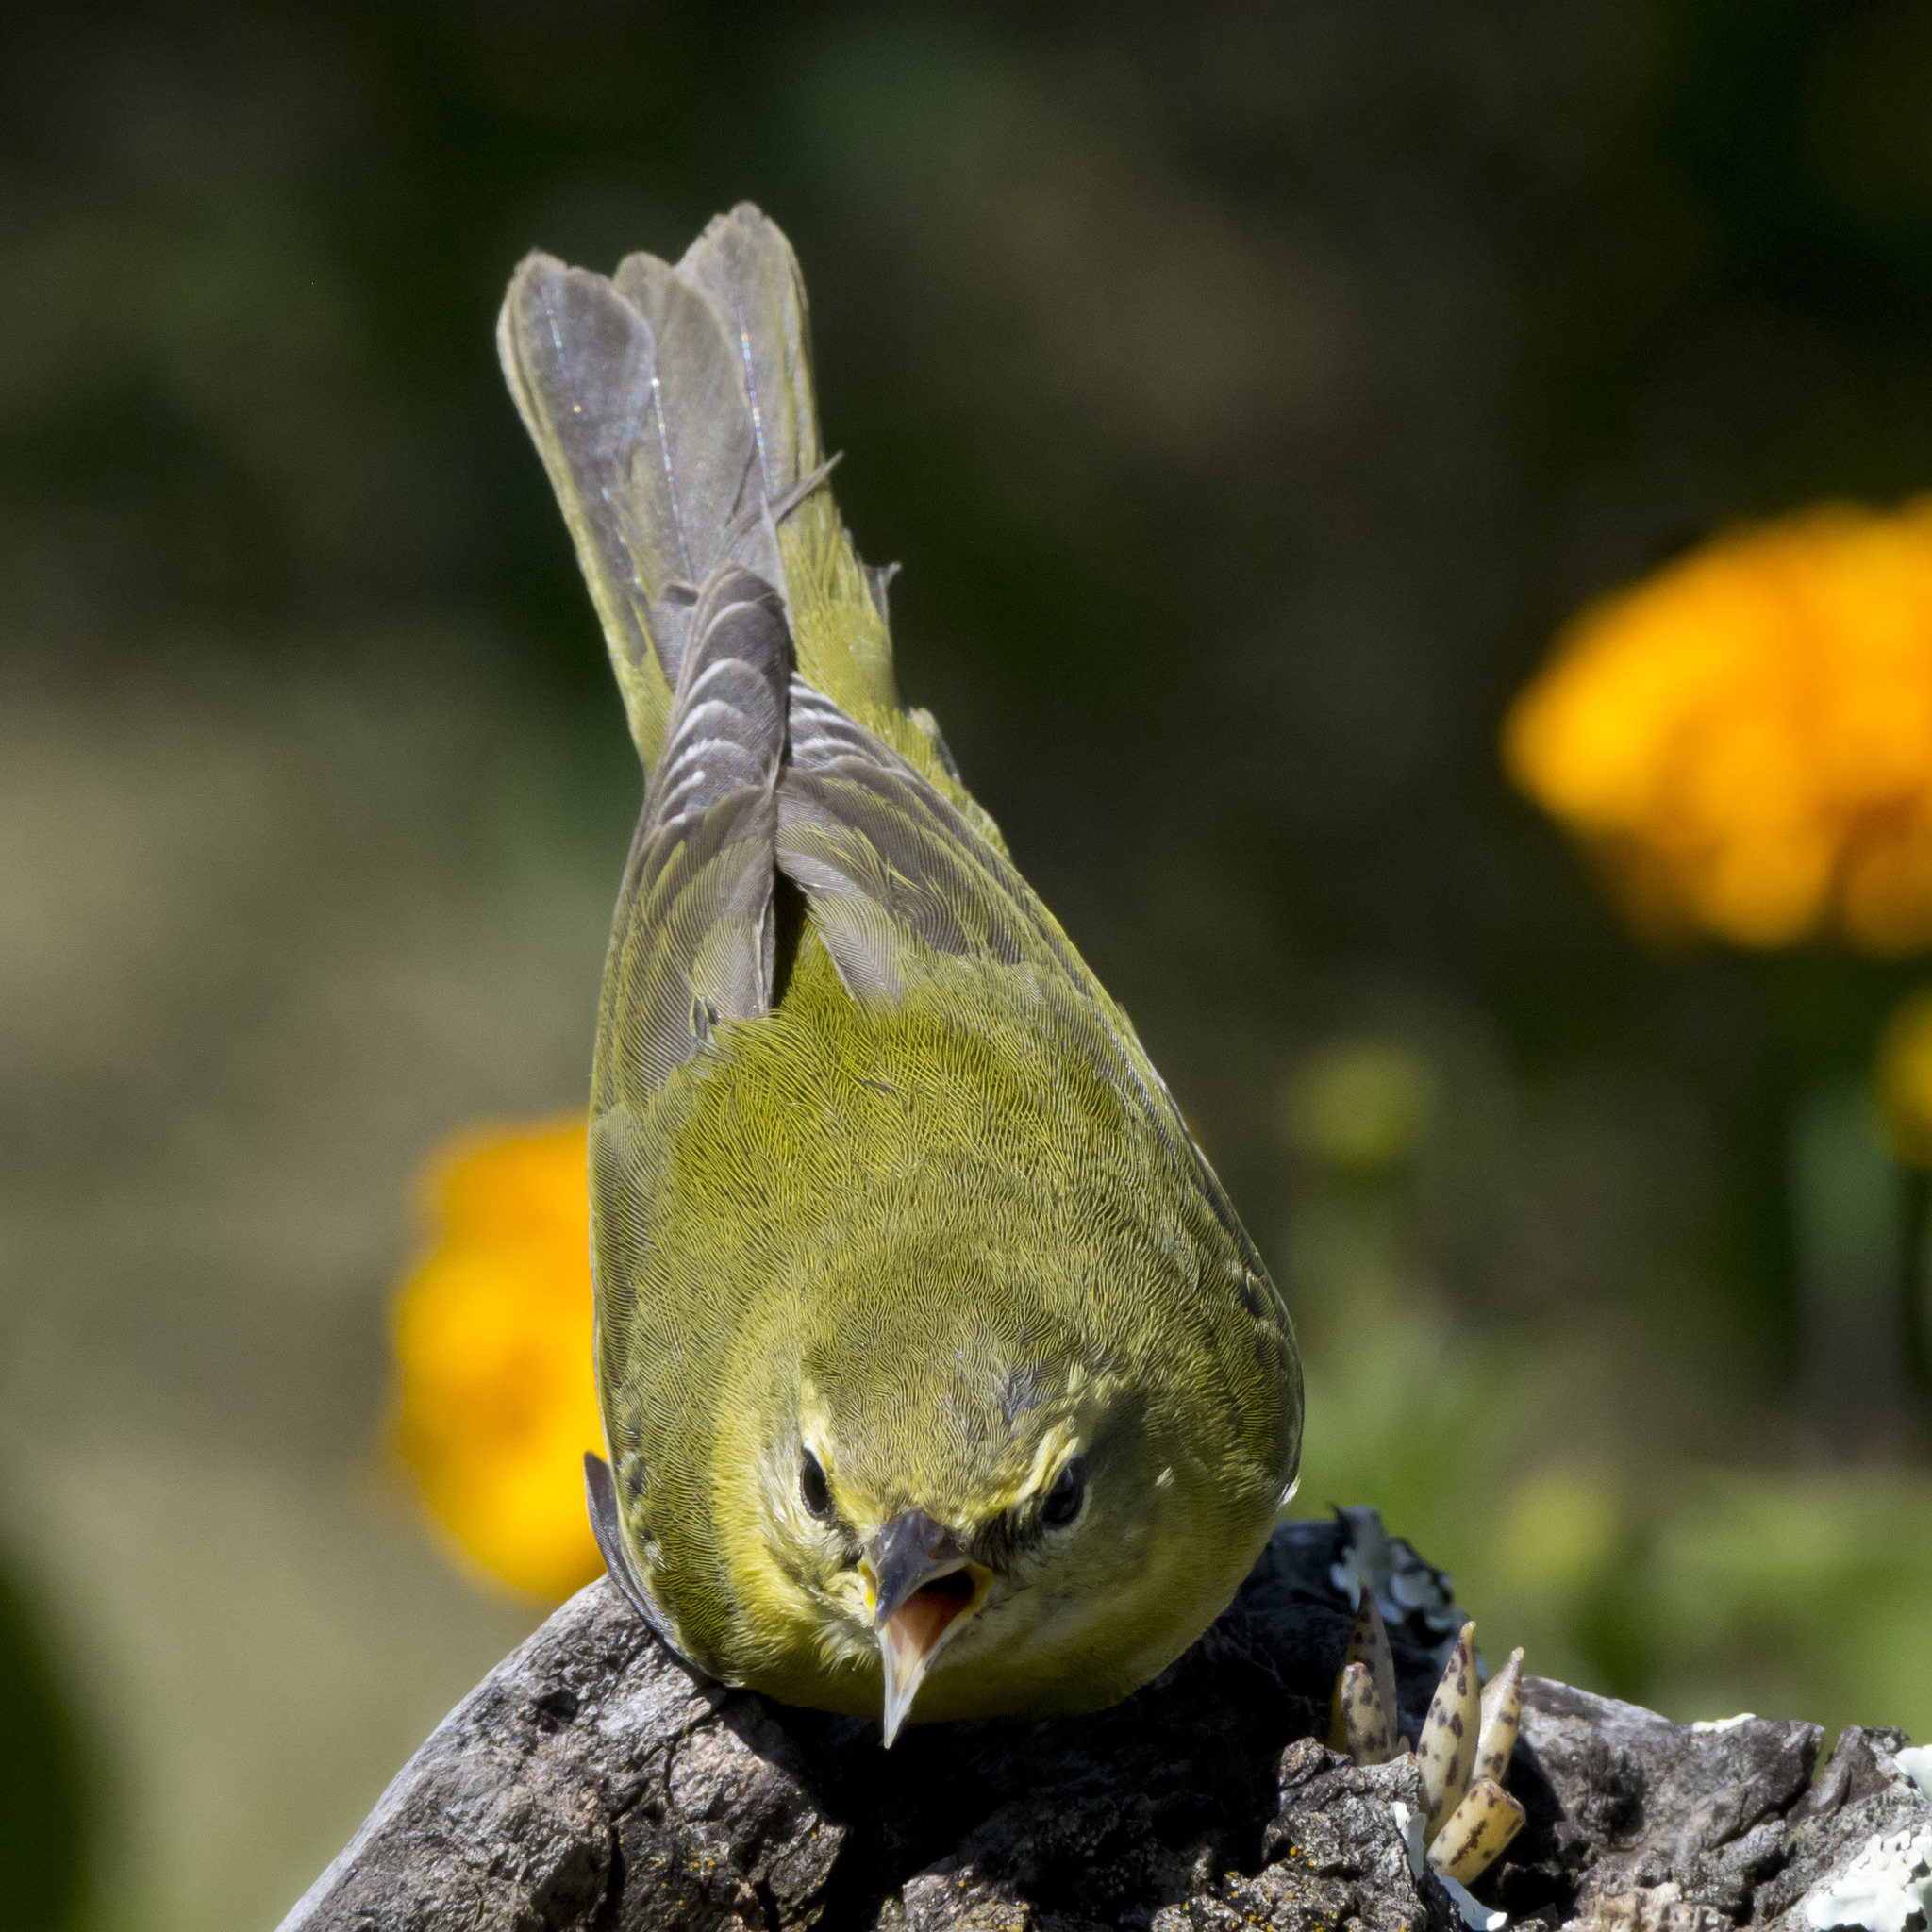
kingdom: Animalia
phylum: Chordata
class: Aves
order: Passeriformes
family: Parulidae
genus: Leiothlypis
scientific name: Leiothlypis peregrina
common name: Tennessee warbler
